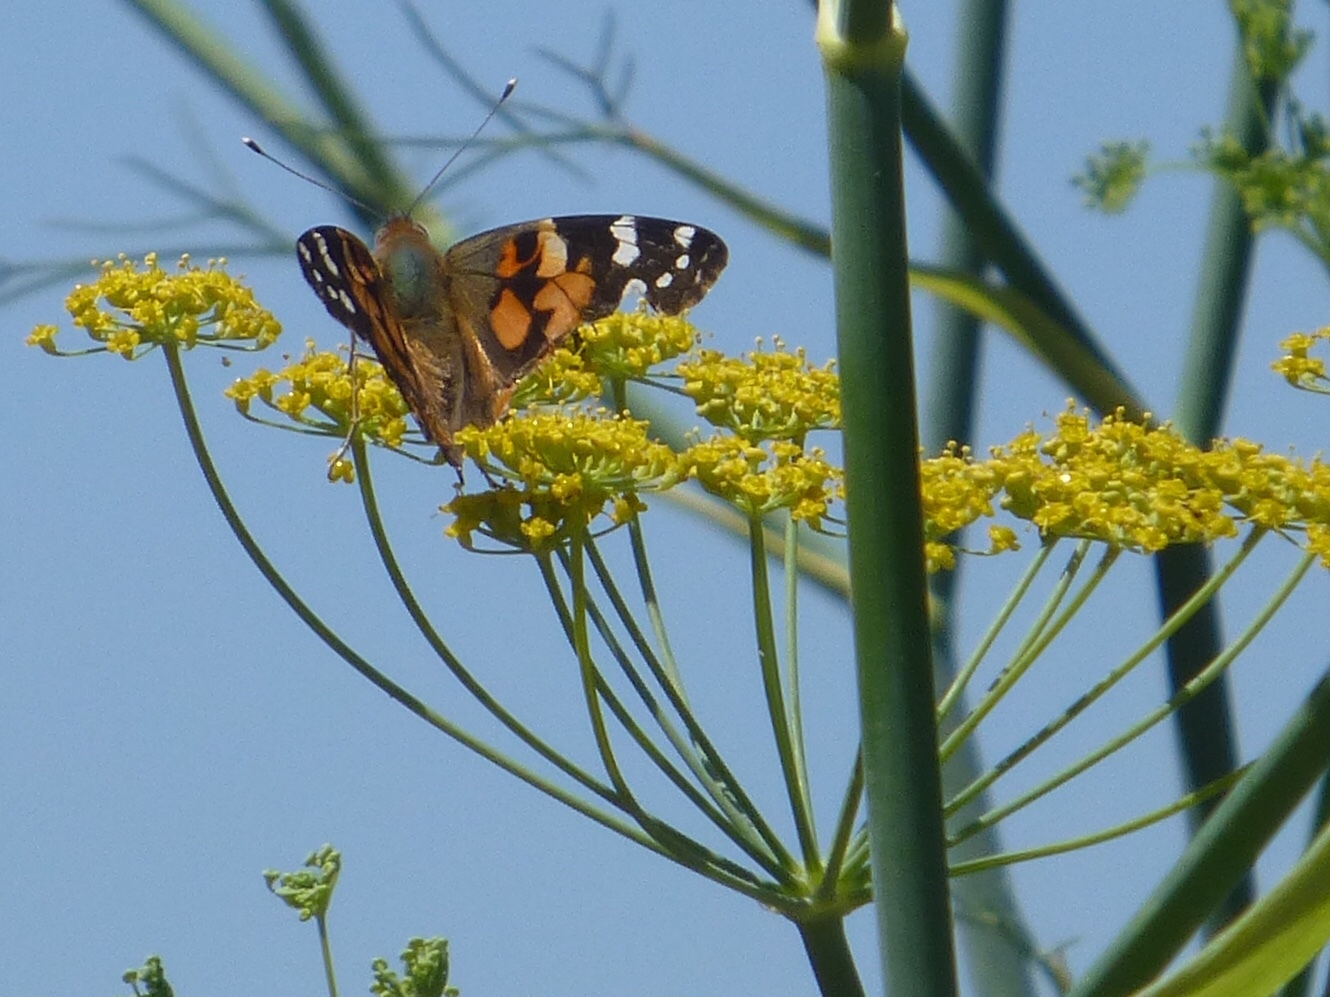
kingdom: Animalia
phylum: Arthropoda
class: Insecta
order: Lepidoptera
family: Nymphalidae
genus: Vanessa
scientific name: Vanessa cardui
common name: Painted lady
